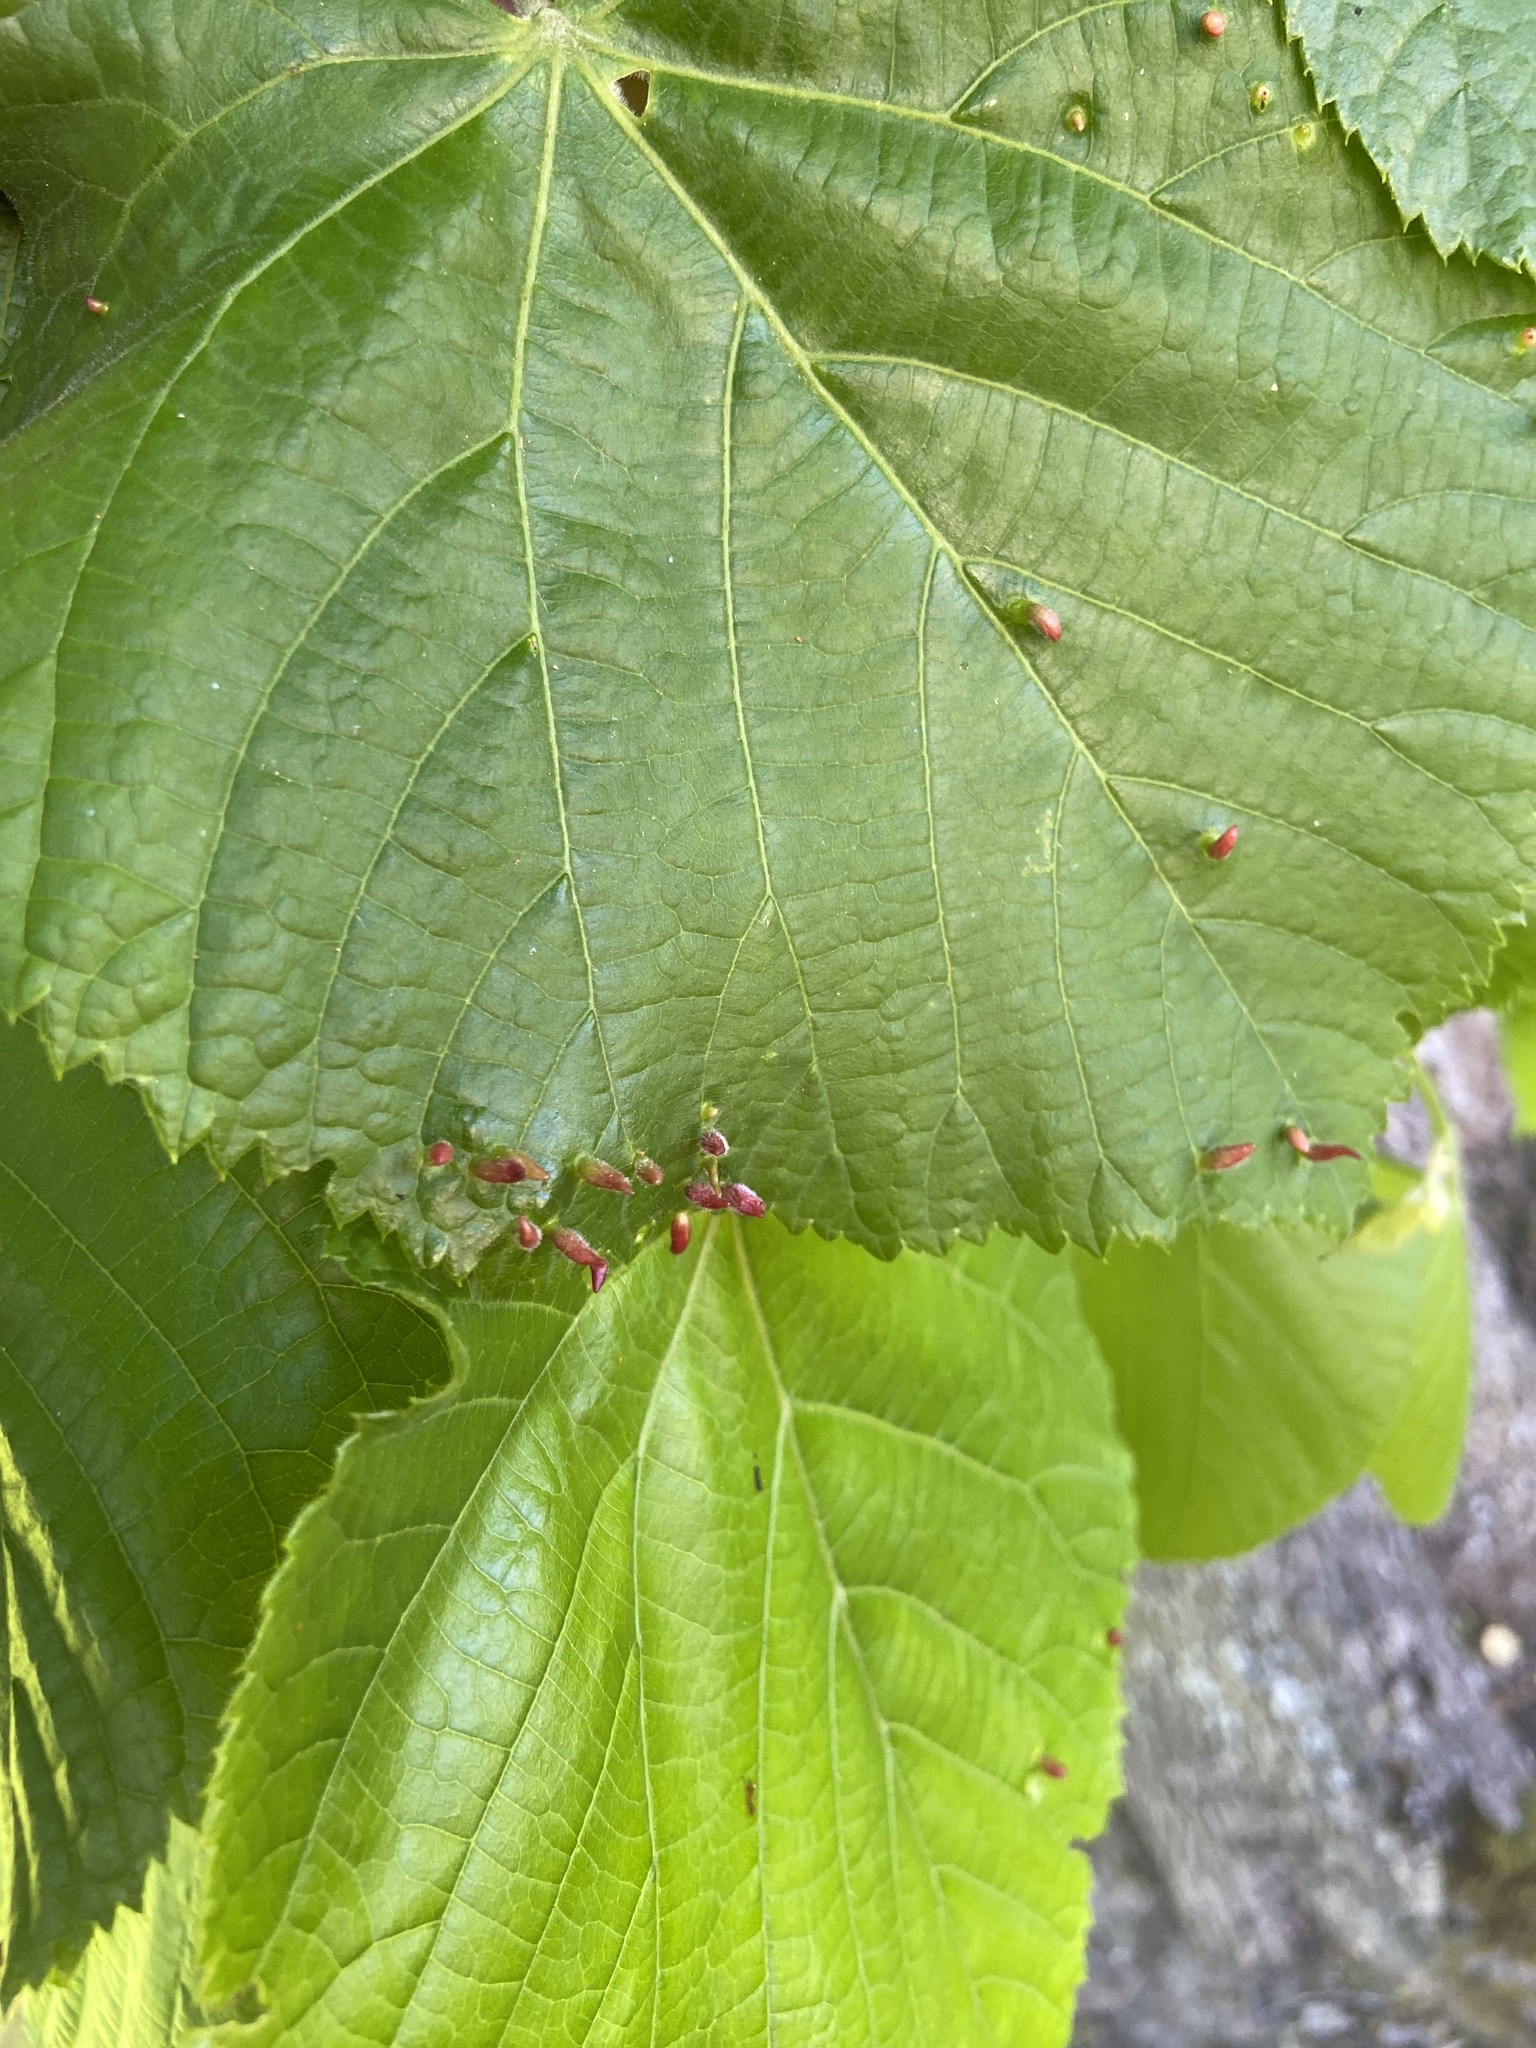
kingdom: Animalia
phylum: Arthropoda
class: Arachnida
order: Trombidiformes
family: Eriophyidae
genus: Eriophyes
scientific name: Eriophyes tiliae
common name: Red nail gall mite
